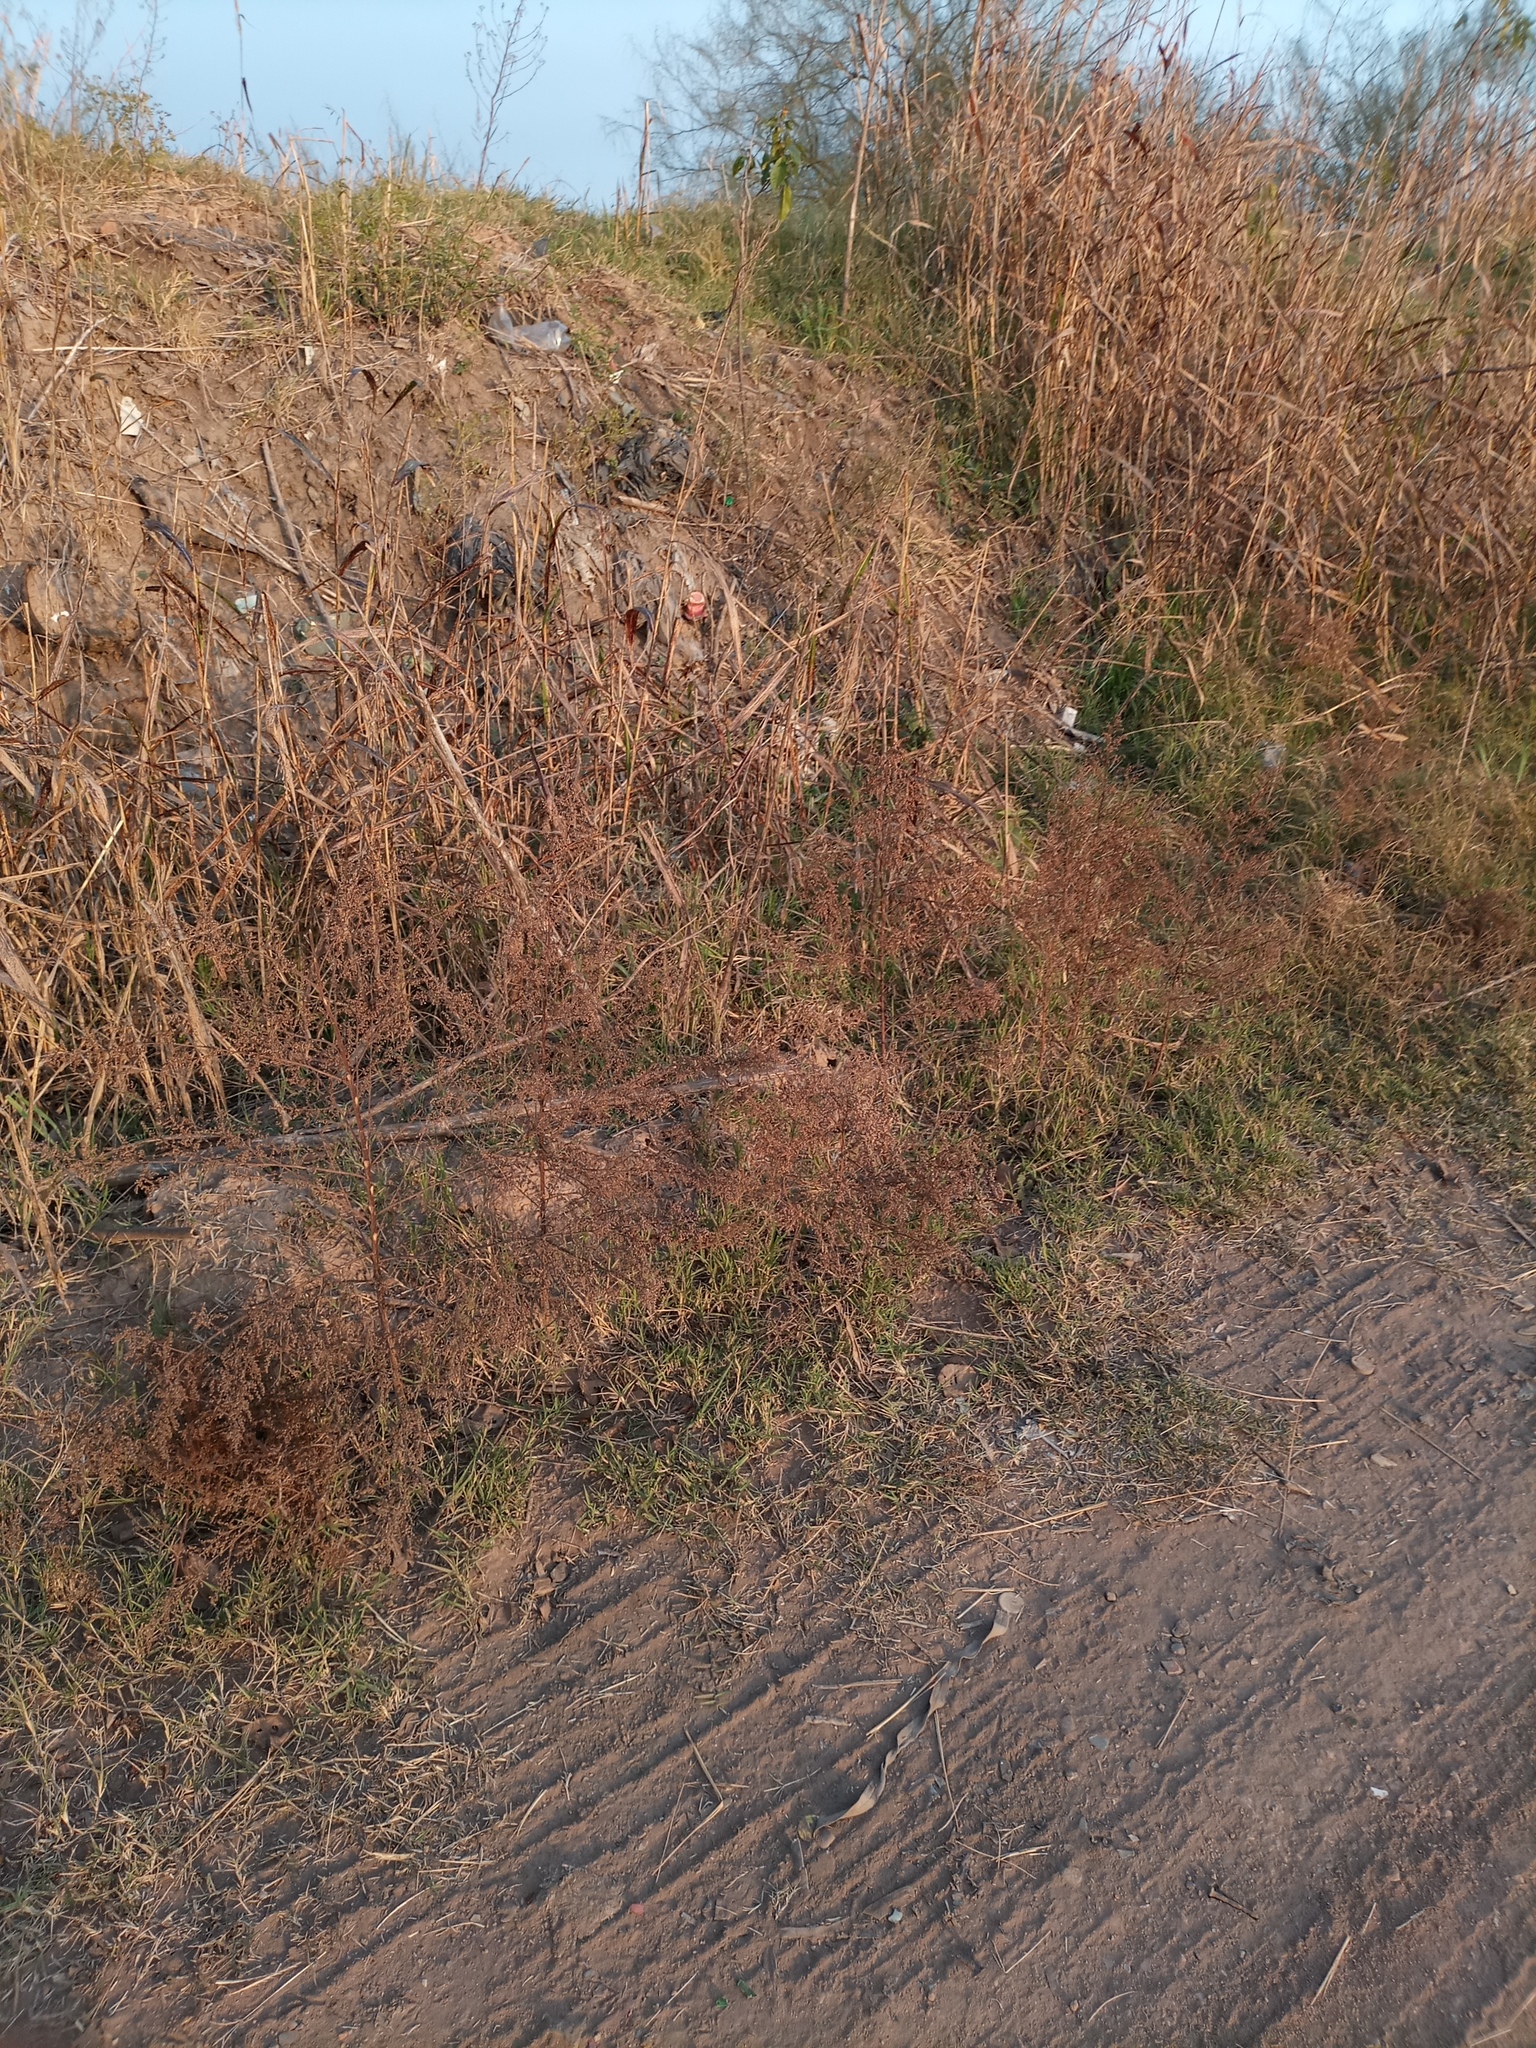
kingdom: Plantae
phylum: Tracheophyta
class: Magnoliopsida
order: Asterales
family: Asteraceae
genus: Artemisia
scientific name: Artemisia annua
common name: Sweet sagewort
